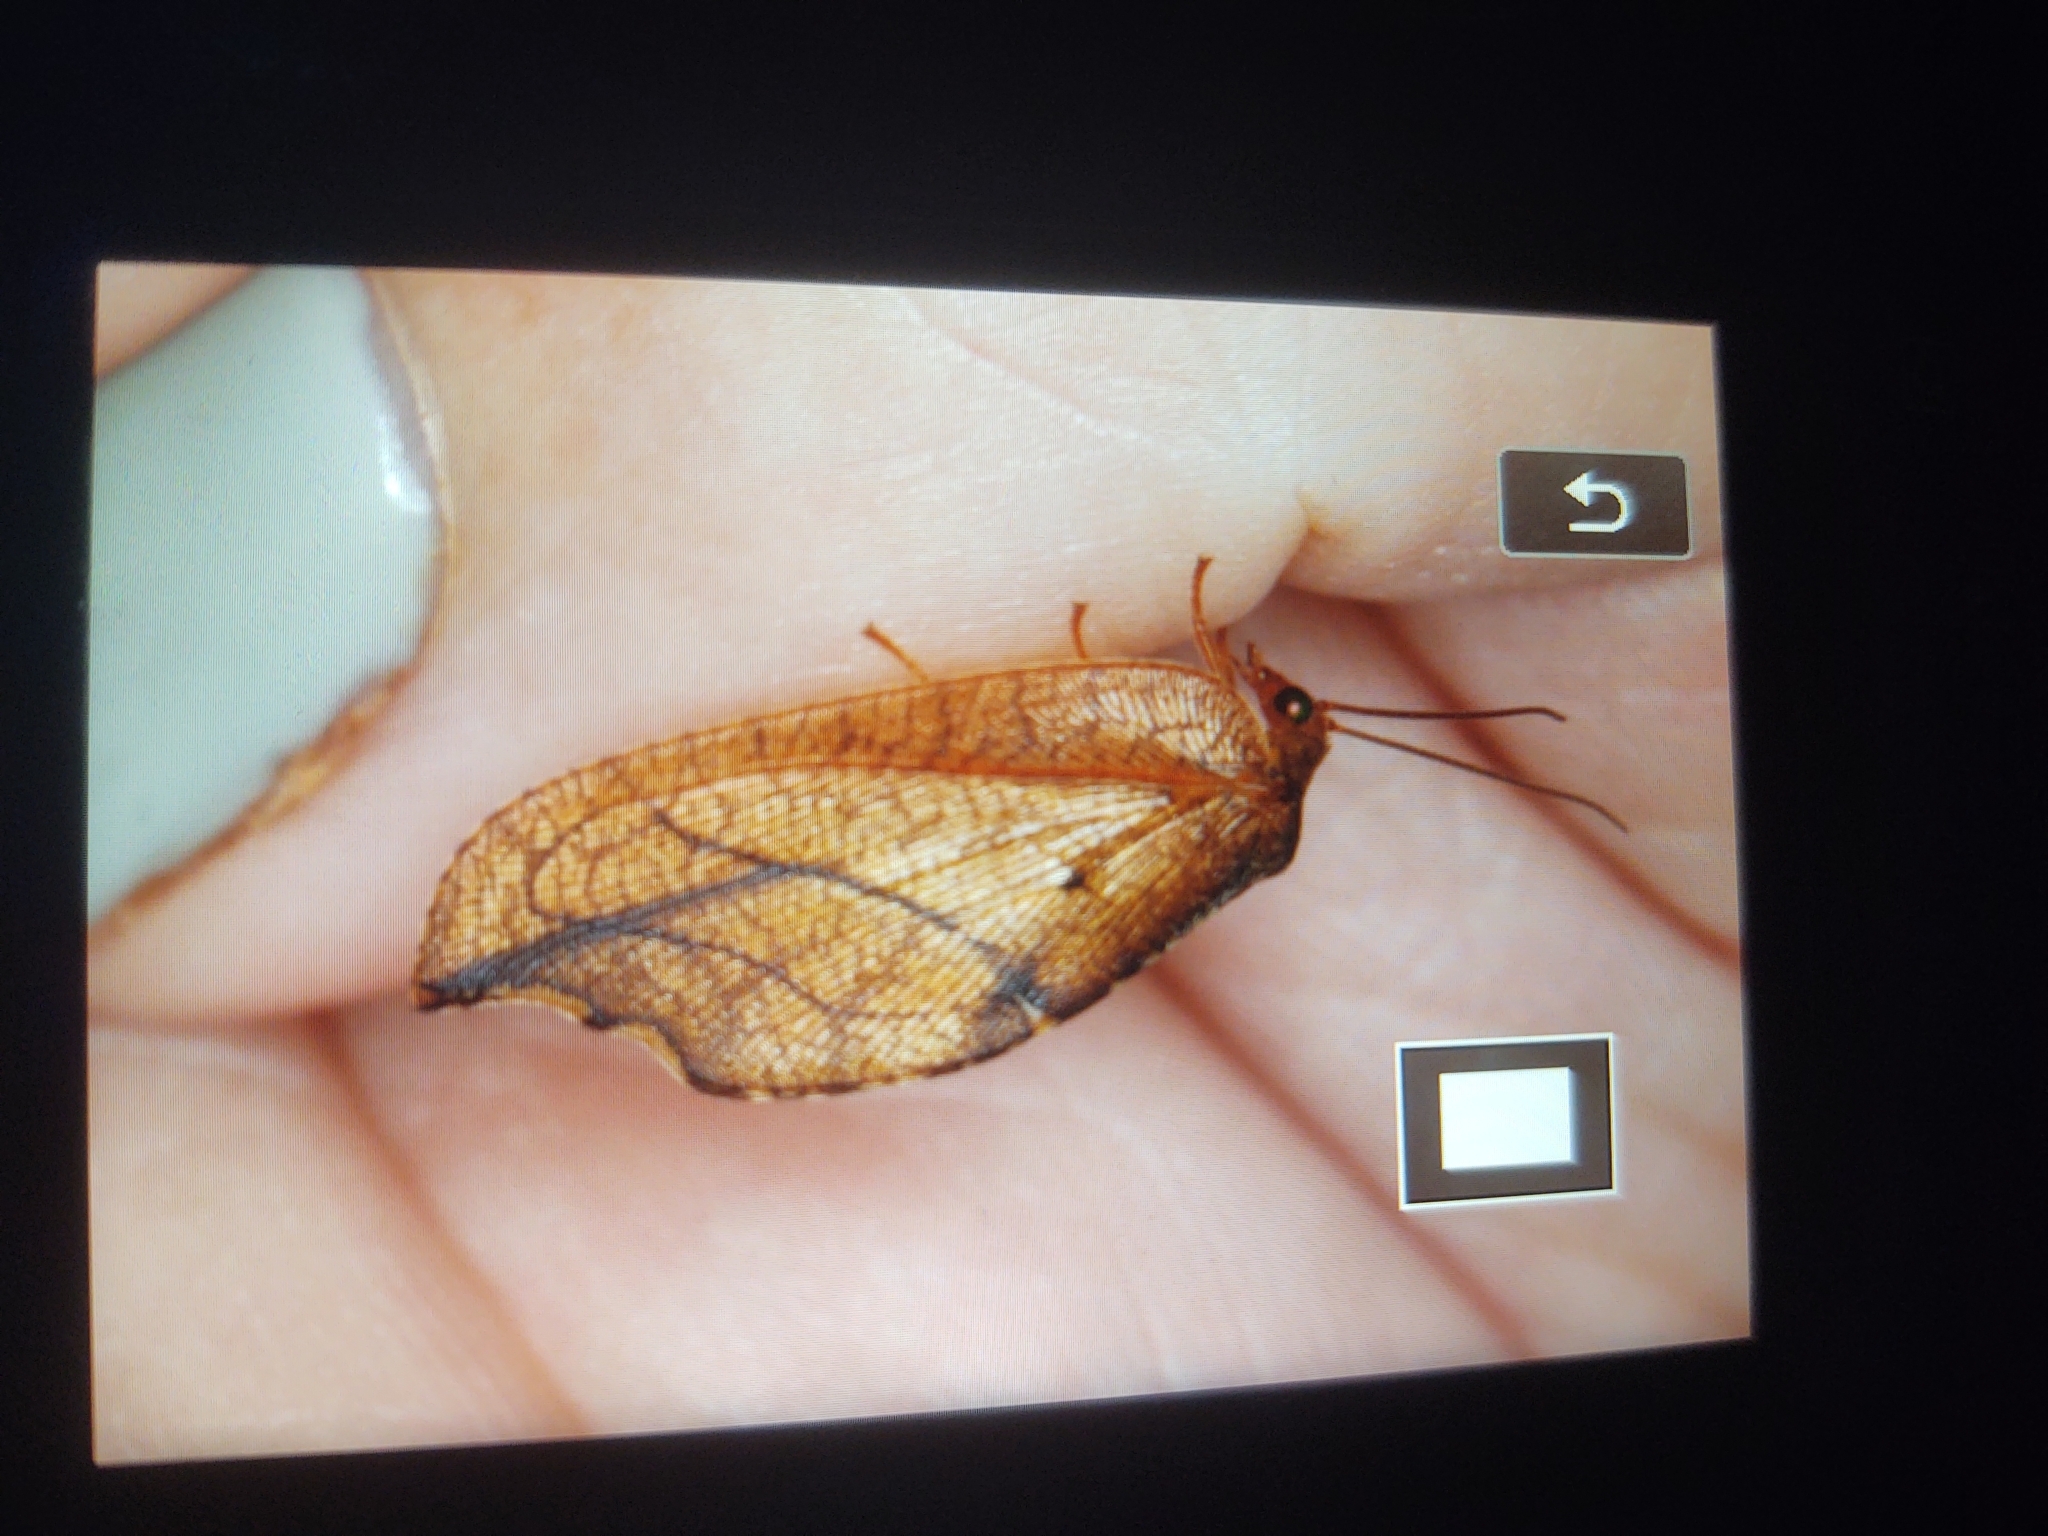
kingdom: Animalia
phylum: Arthropoda
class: Insecta
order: Neuroptera
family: Hemerobiidae
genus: Drepanepteryx
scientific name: Drepanepteryx phalaenoides
